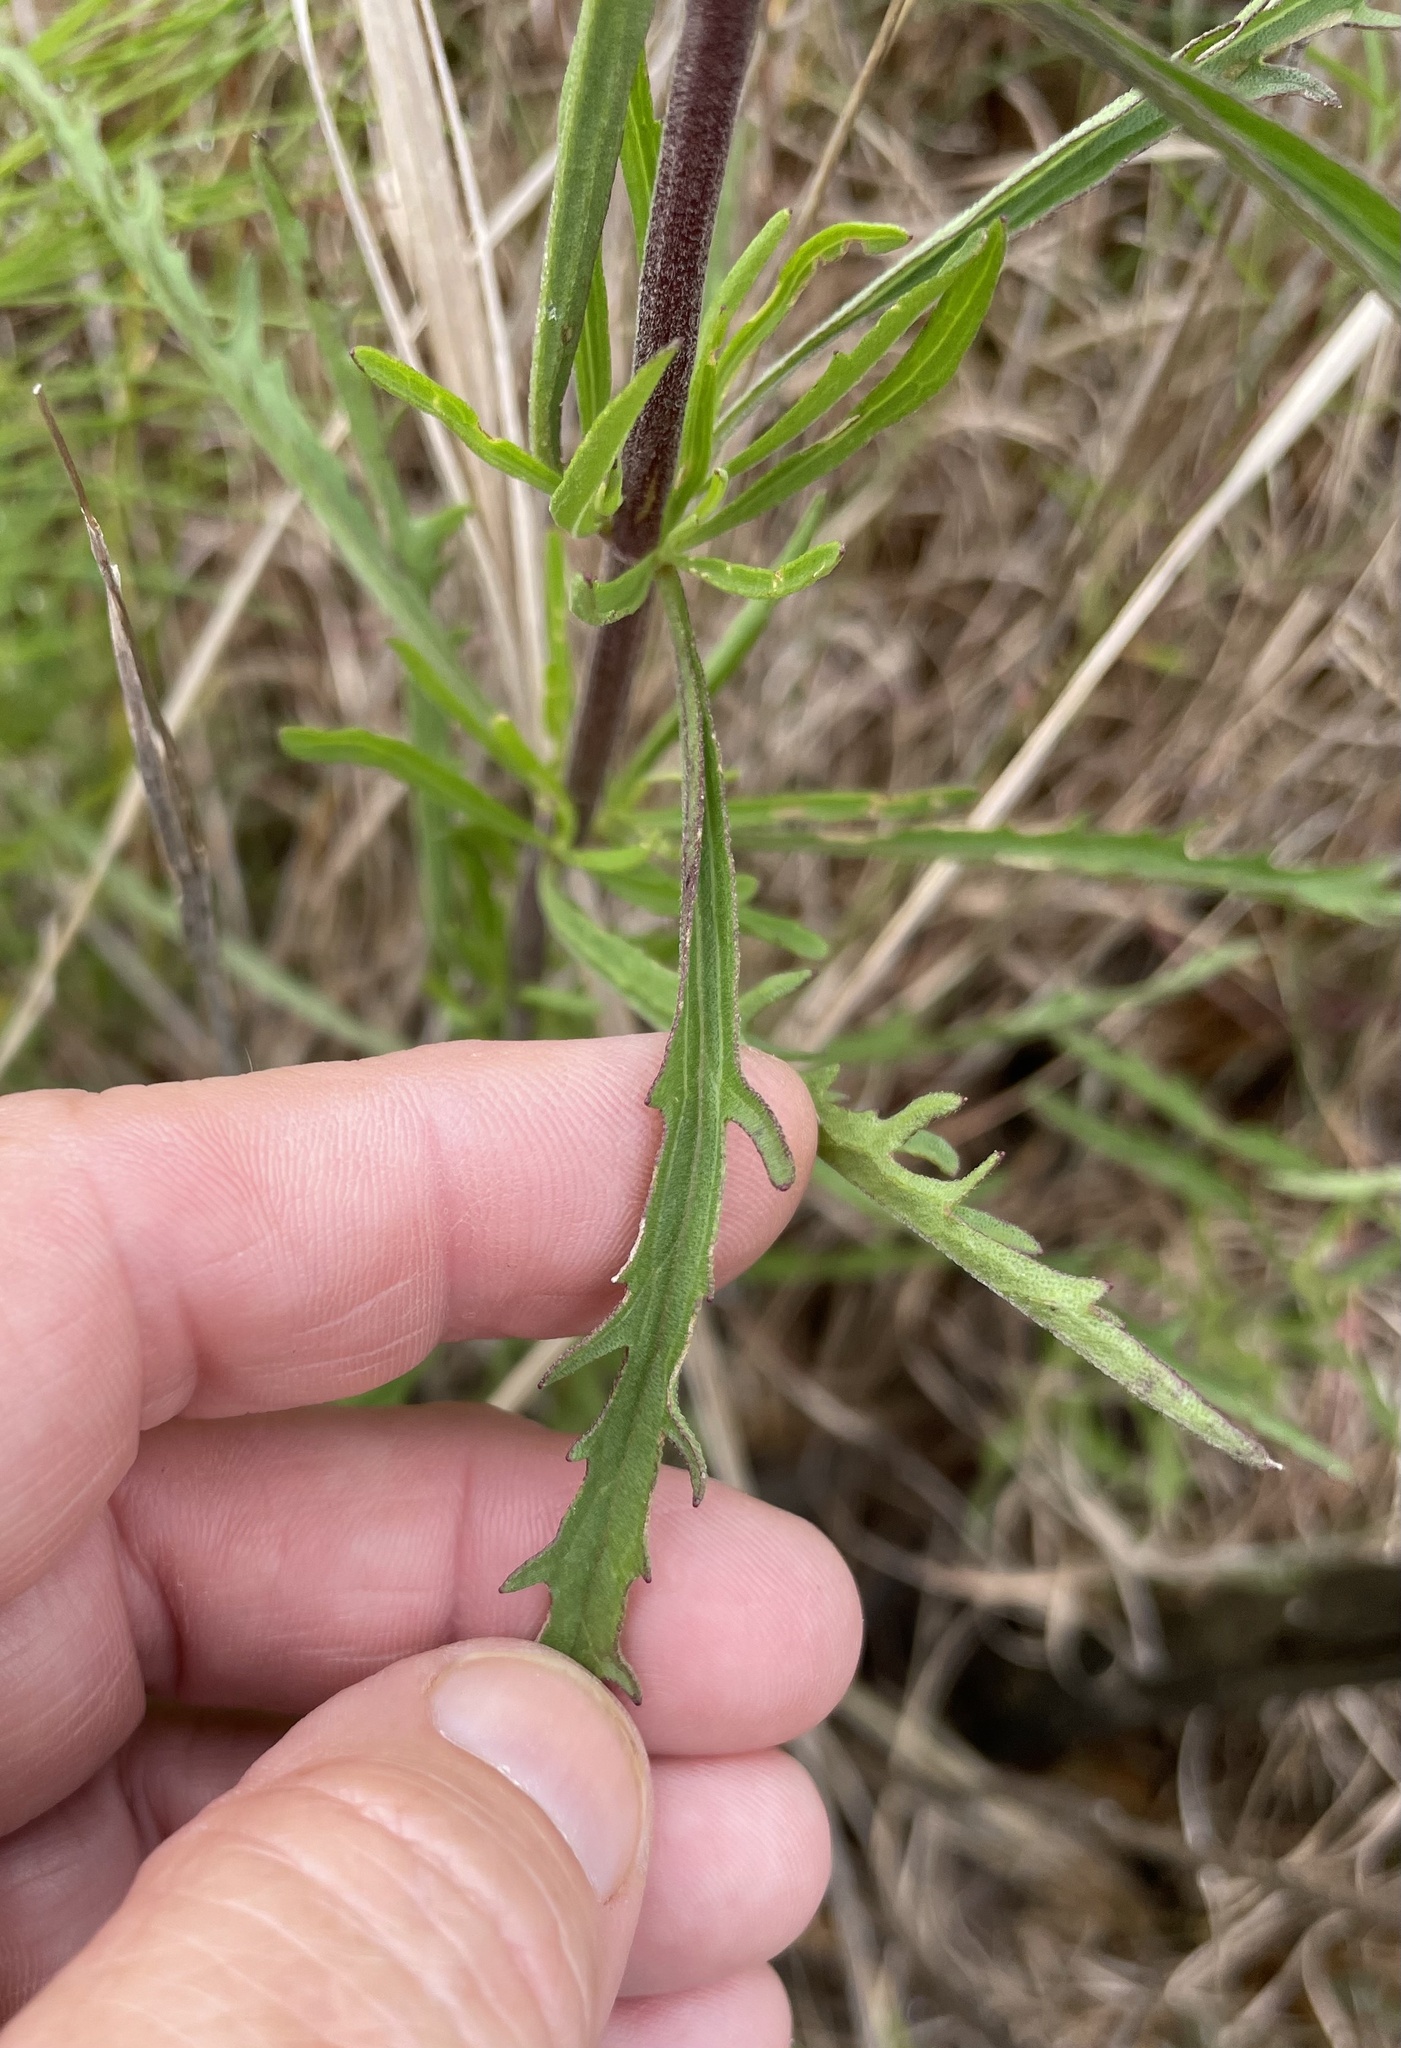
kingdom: Plantae
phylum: Tracheophyta
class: Magnoliopsida
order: Asterales
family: Asteraceae
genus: Eupatorium
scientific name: Eupatorium torreyanum
